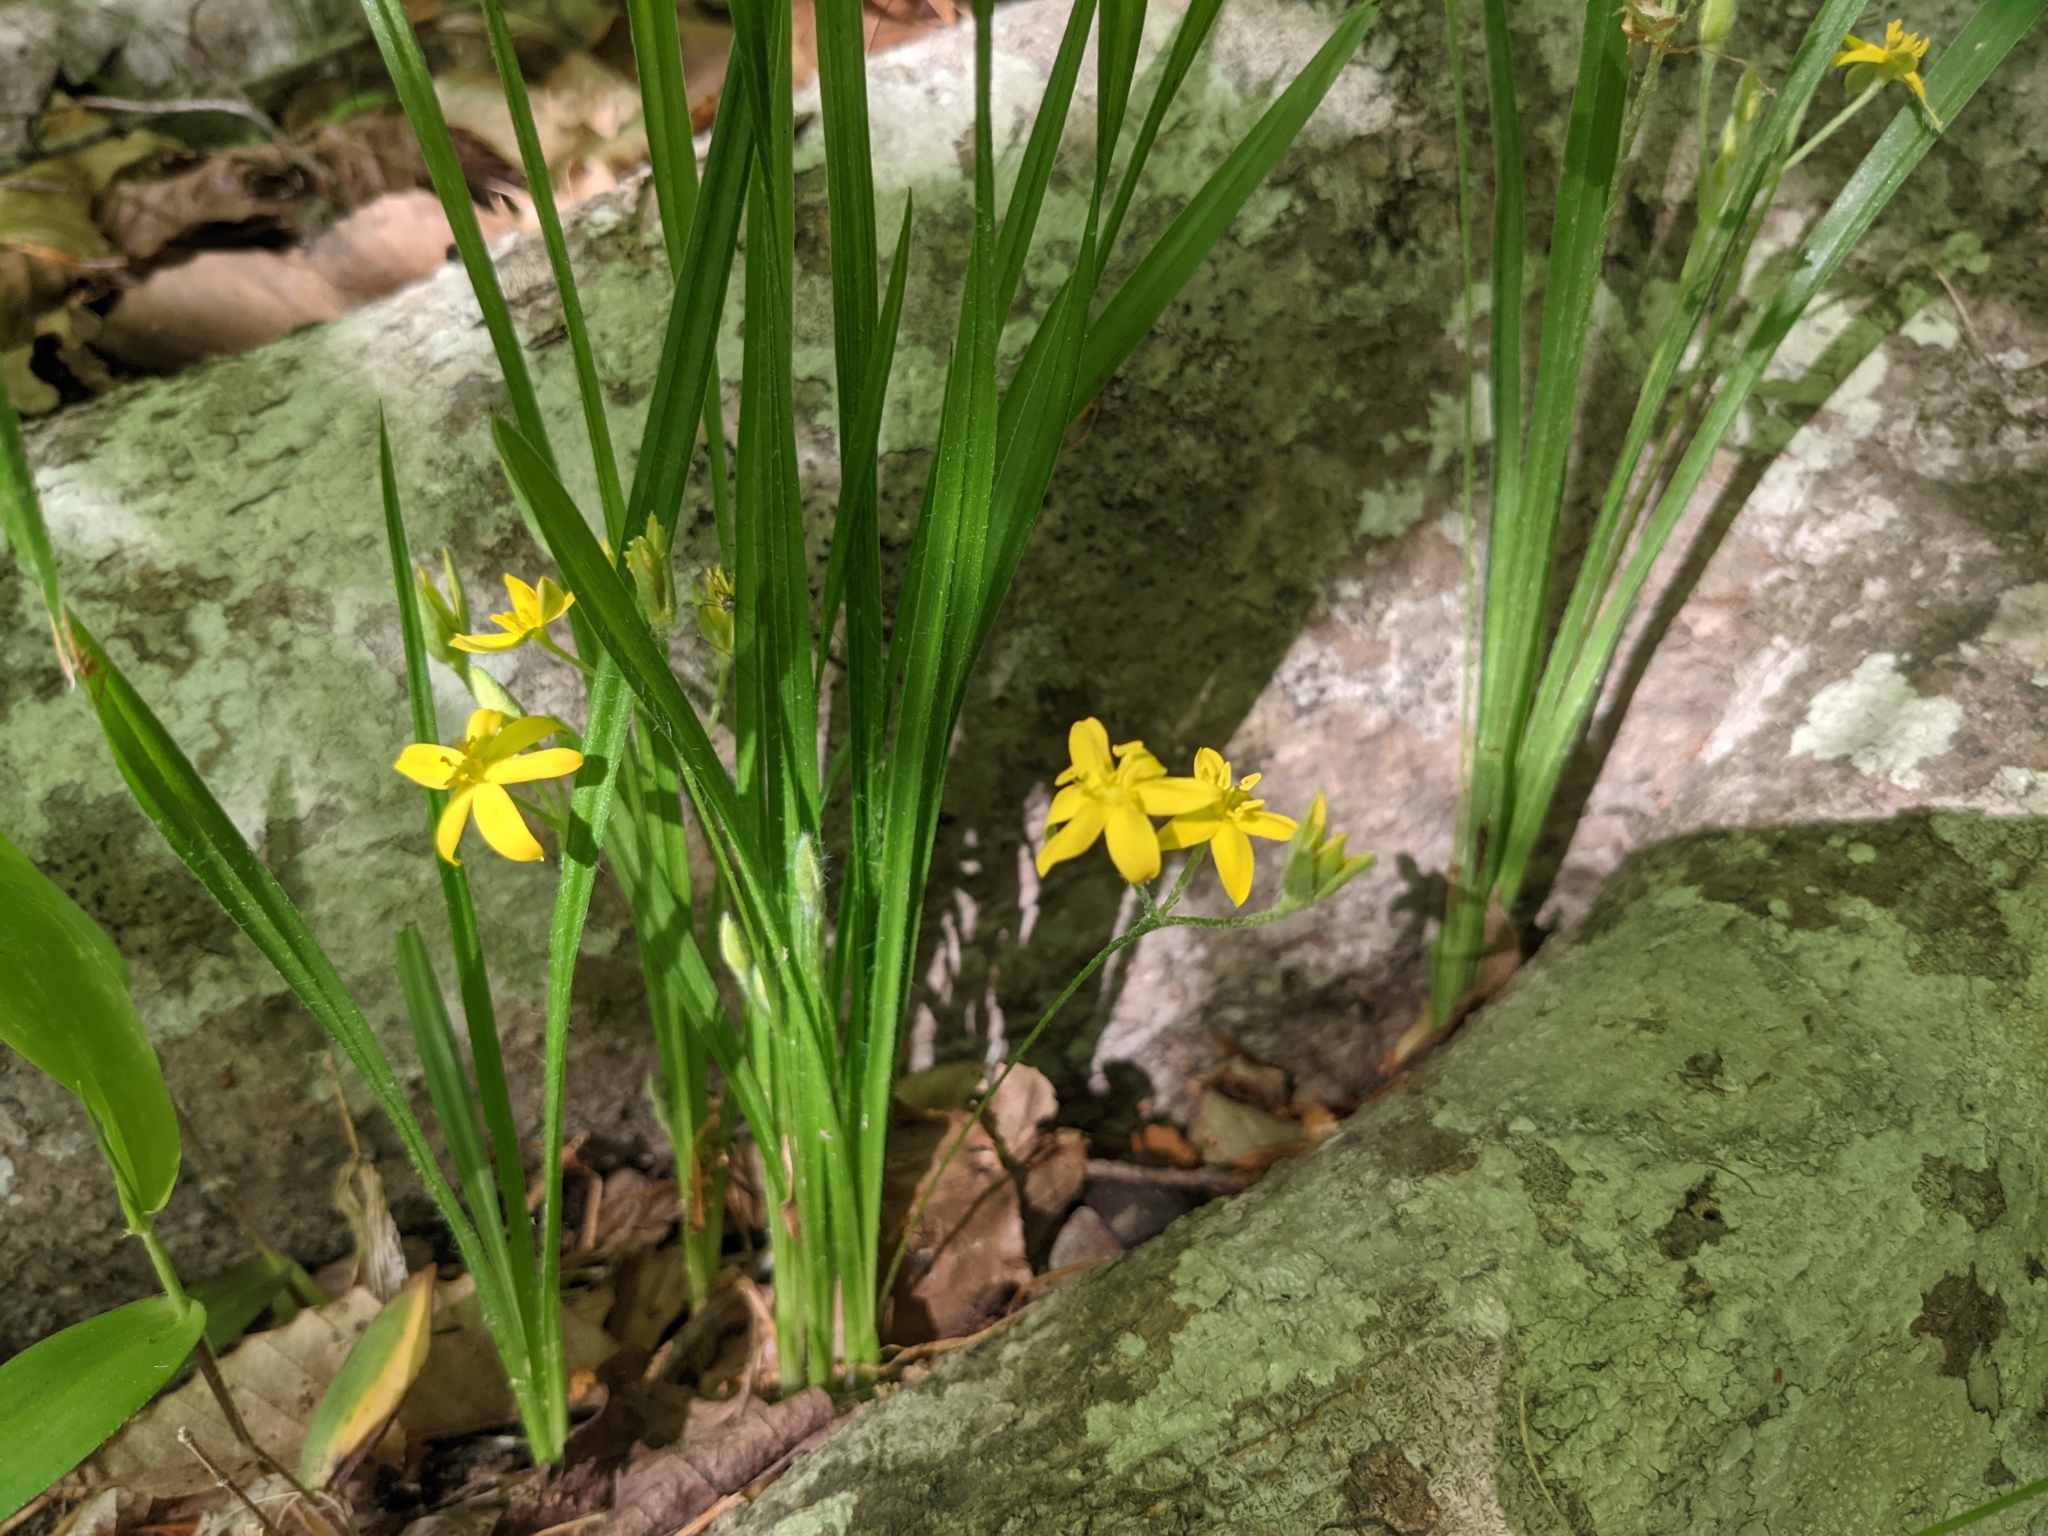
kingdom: Plantae
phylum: Tracheophyta
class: Liliopsida
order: Asparagales
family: Hypoxidaceae
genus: Hypoxis
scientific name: Hypoxis hirsuta
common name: Common goldstar
